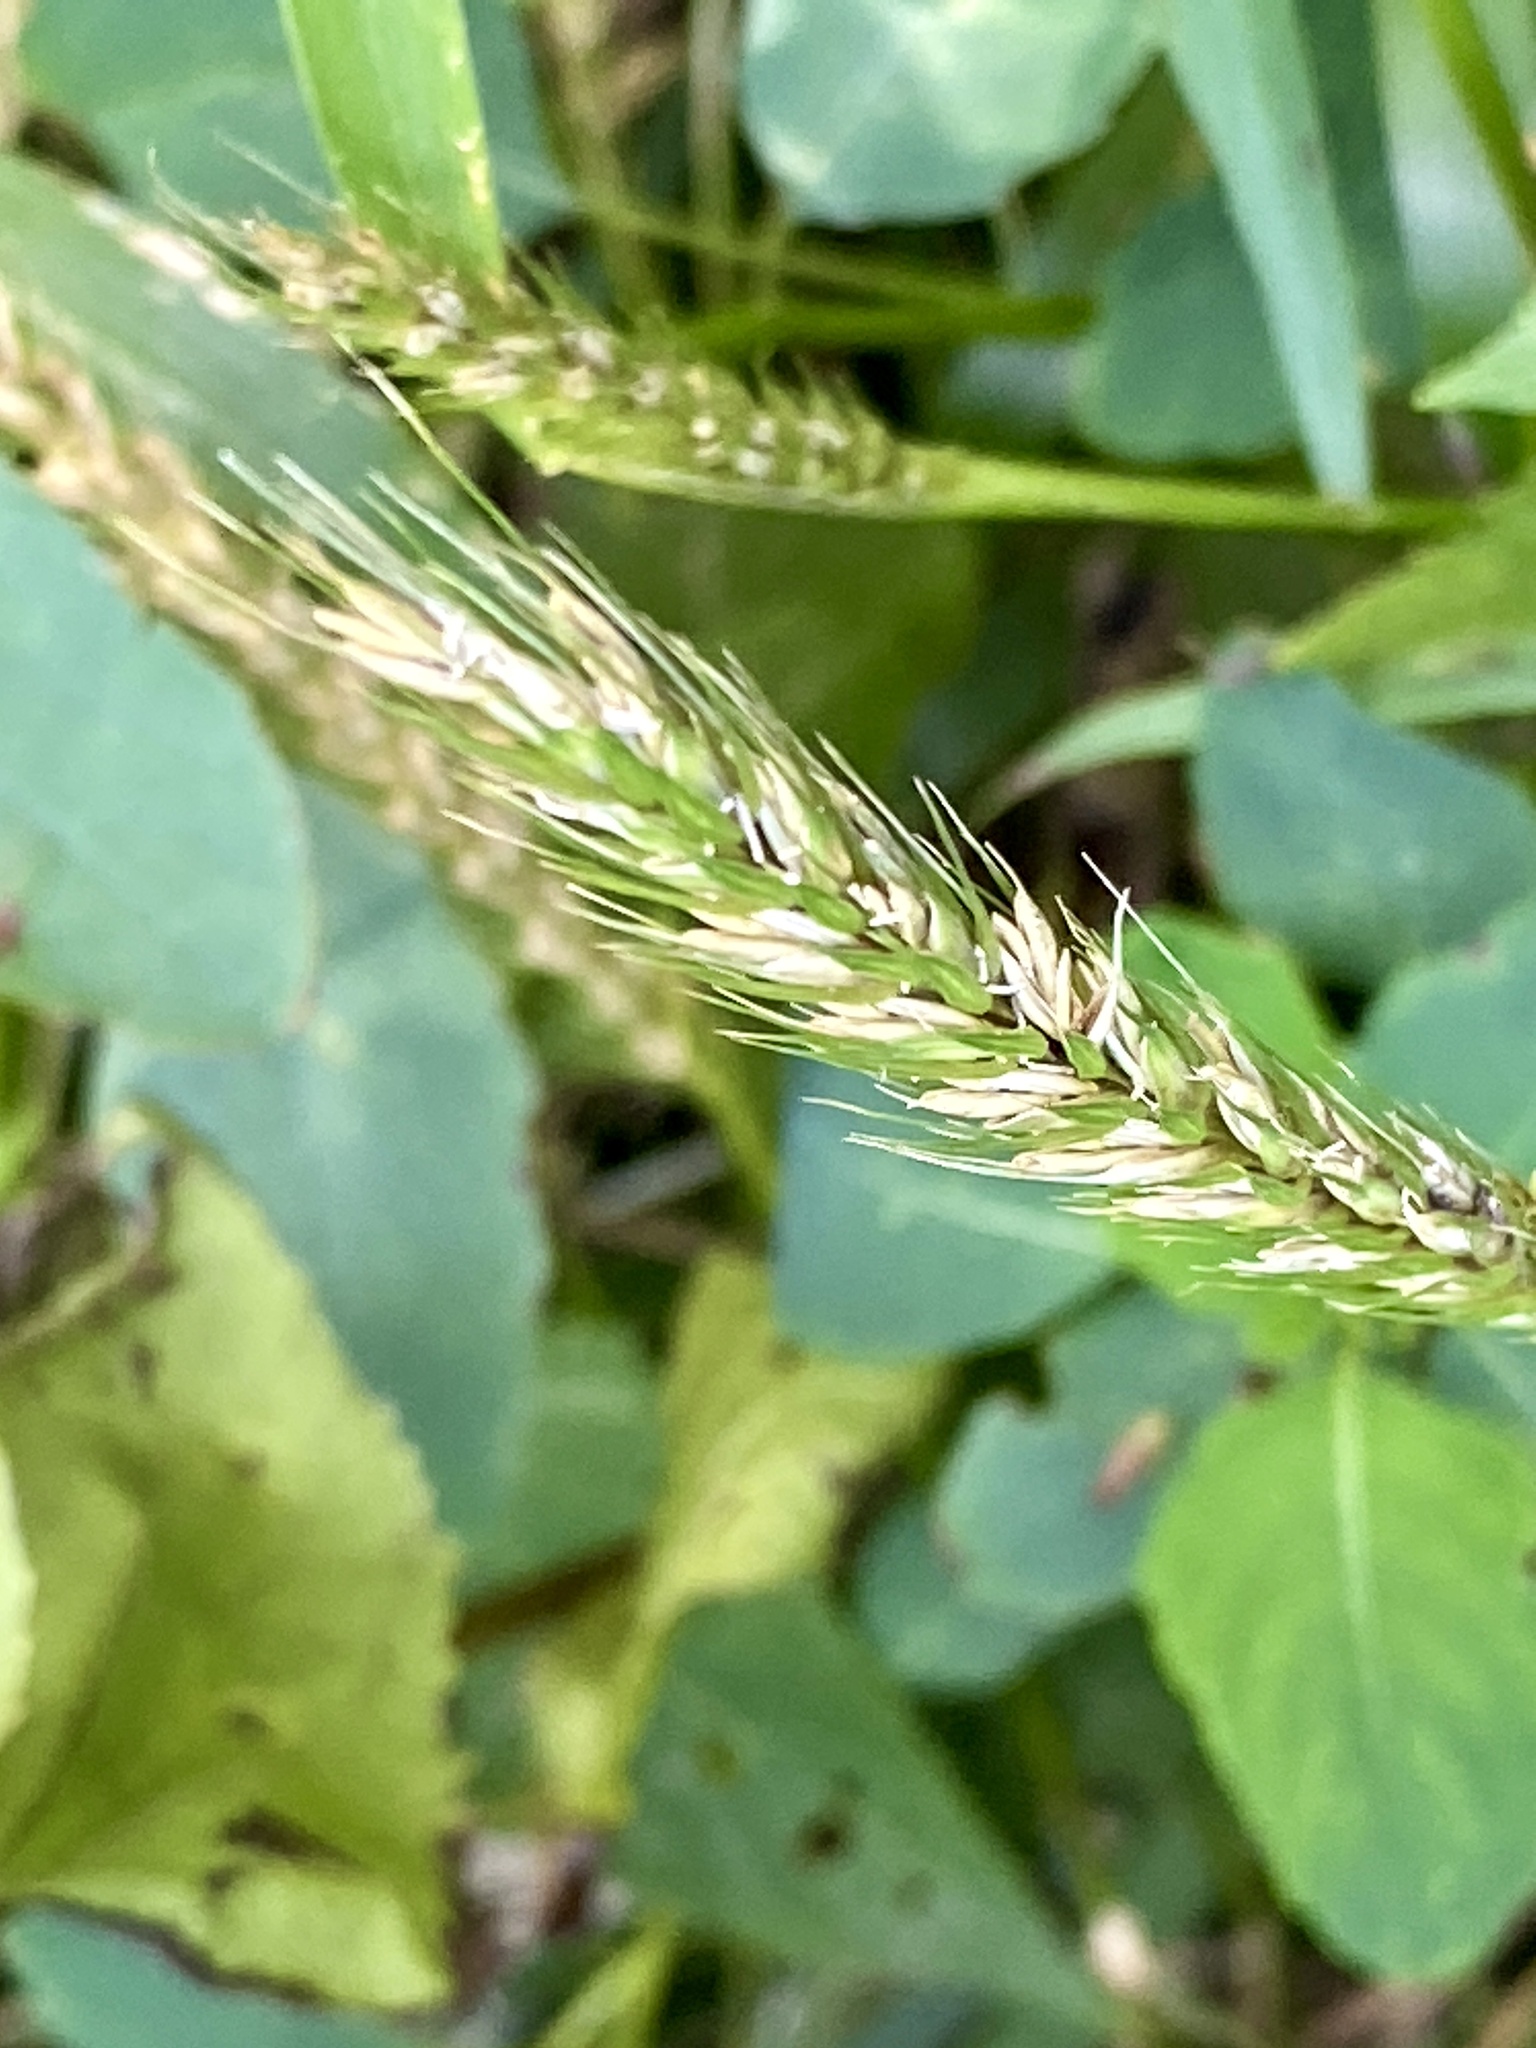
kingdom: Plantae
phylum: Tracheophyta
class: Liliopsida
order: Poales
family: Poaceae
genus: Elymus
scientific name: Elymus virginicus
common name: Common eastern wildrye
